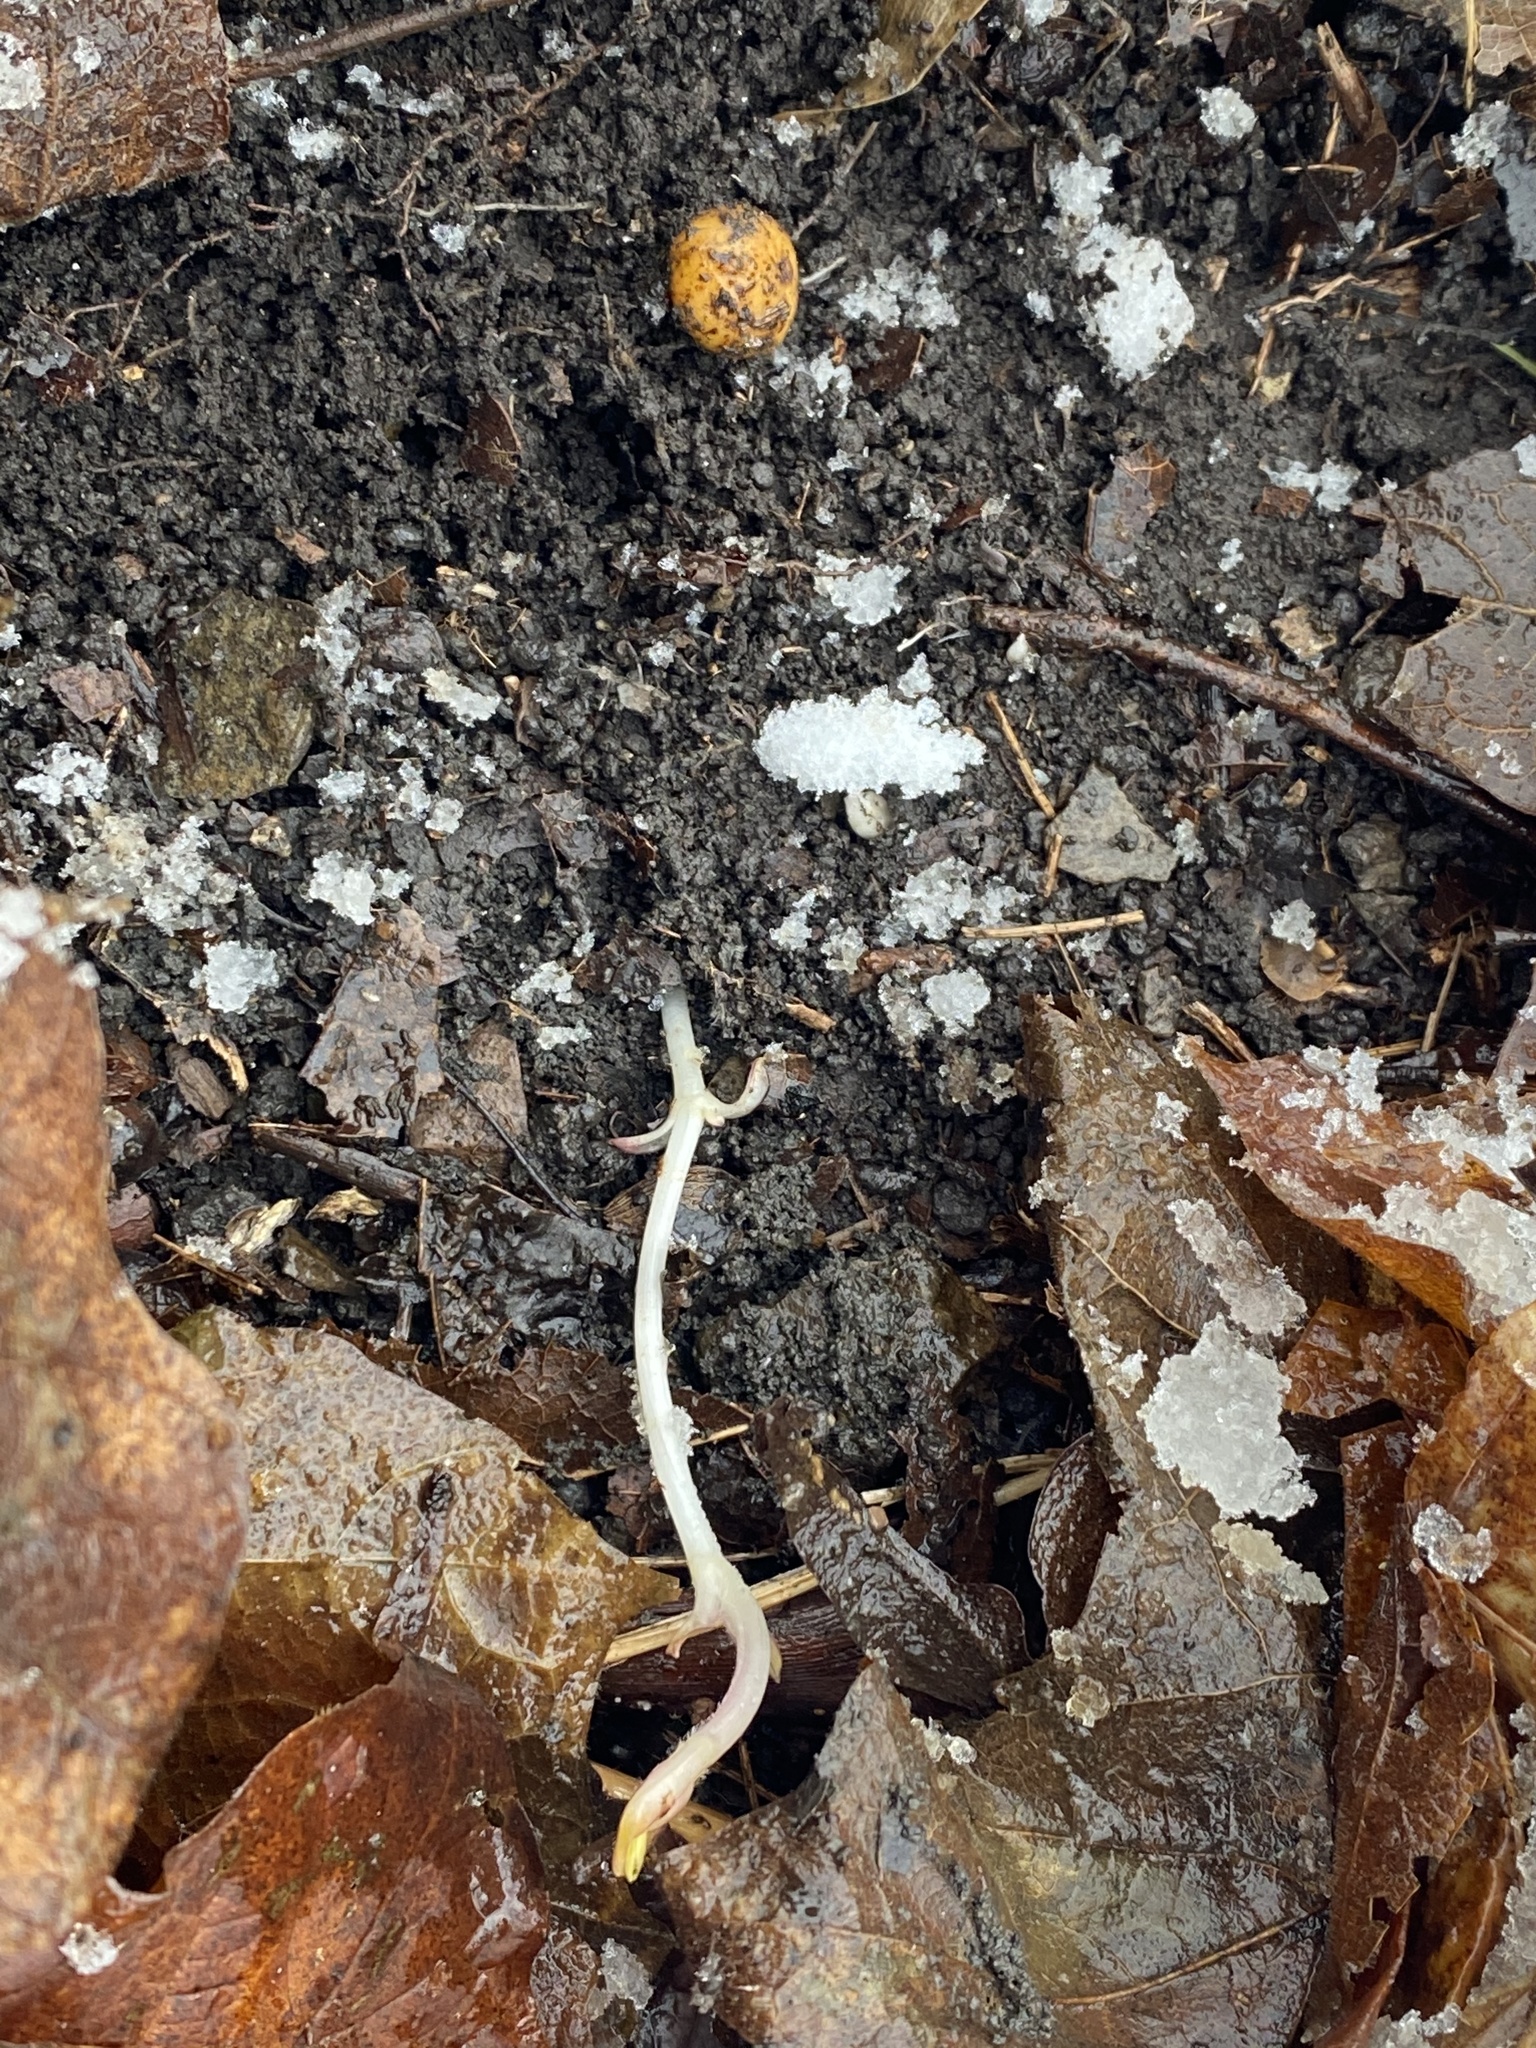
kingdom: Plantae
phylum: Tracheophyta
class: Magnoliopsida
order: Ranunculales
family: Papaveraceae
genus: Dicentra
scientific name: Dicentra canadensis
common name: Squirrel-corn
